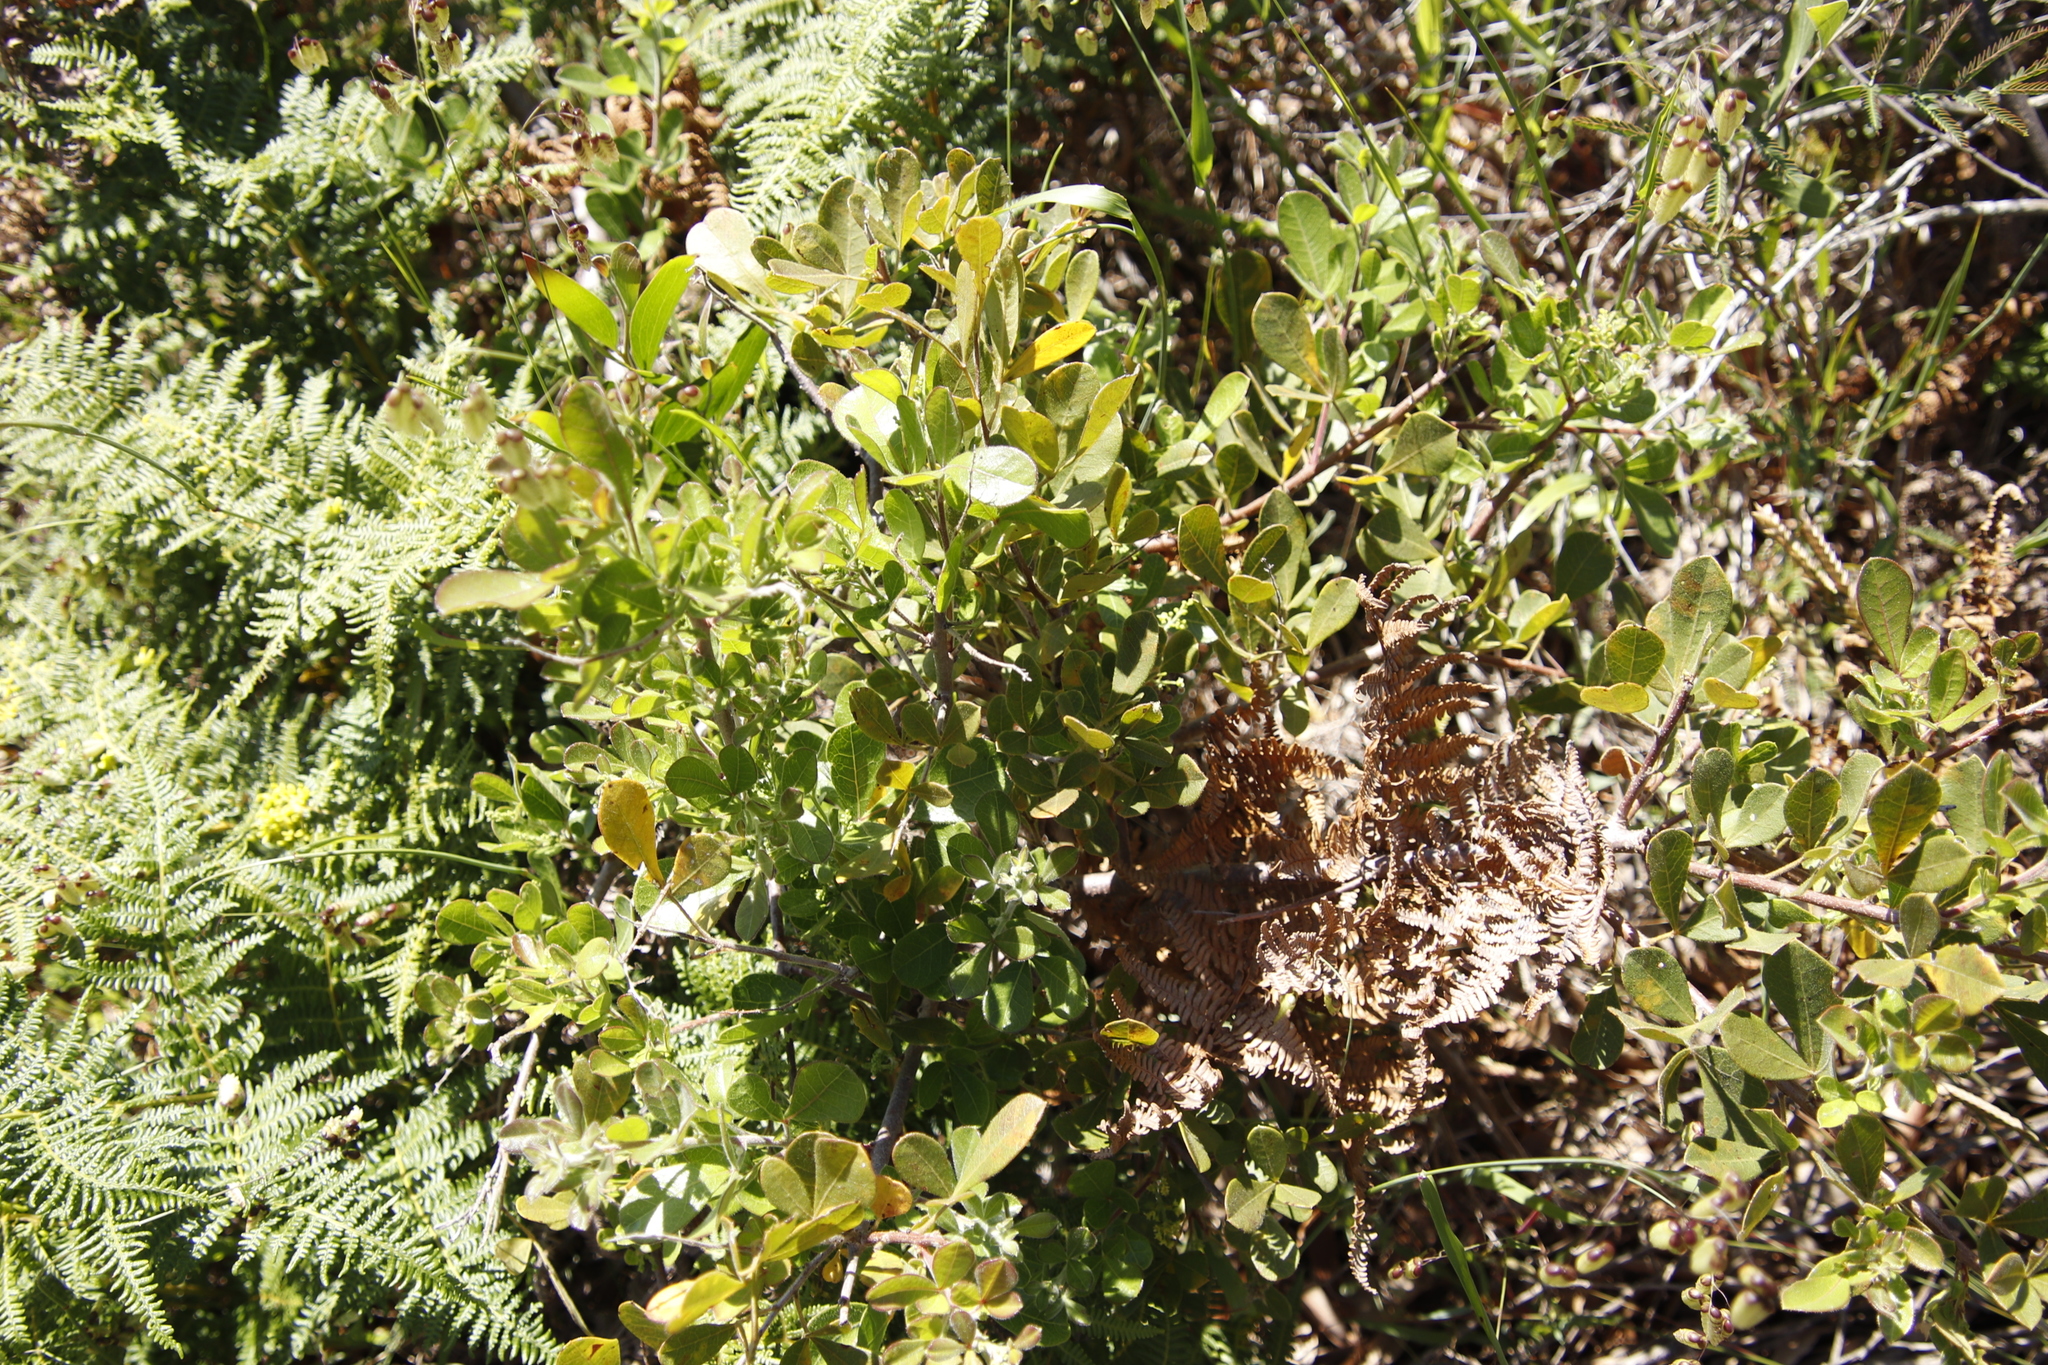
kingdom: Plantae
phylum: Tracheophyta
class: Magnoliopsida
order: Sapindales
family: Anacardiaceae
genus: Searsia
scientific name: Searsia laevigata
